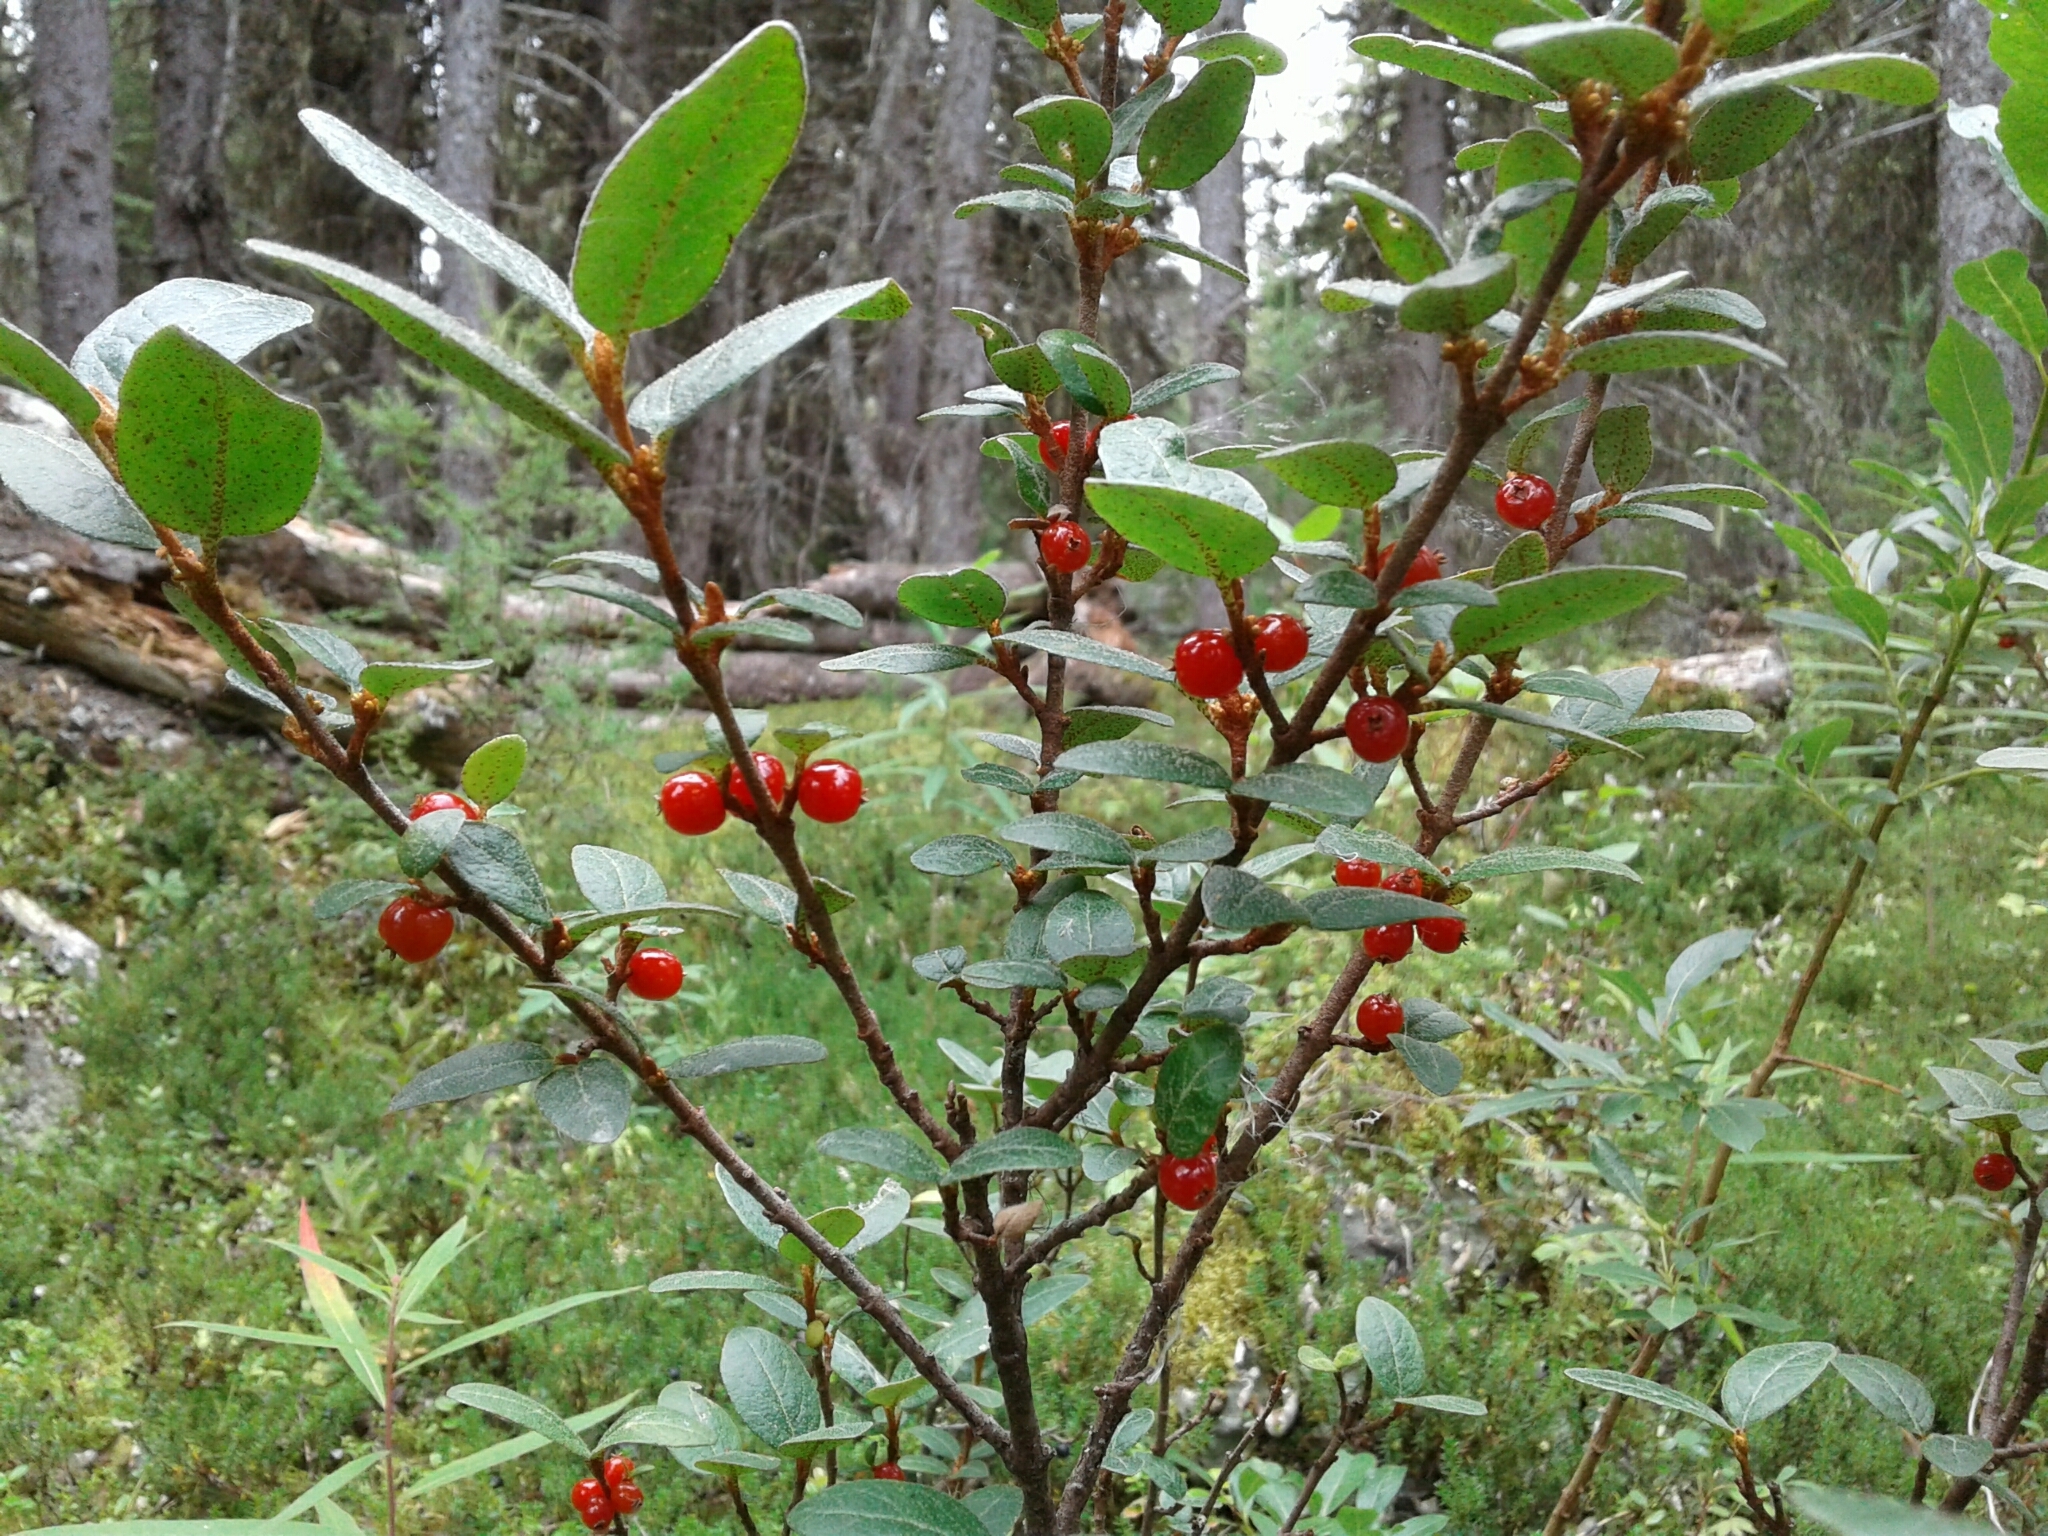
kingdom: Plantae
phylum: Tracheophyta
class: Magnoliopsida
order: Rosales
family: Elaeagnaceae
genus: Shepherdia
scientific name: Shepherdia canadensis
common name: Soapberry
